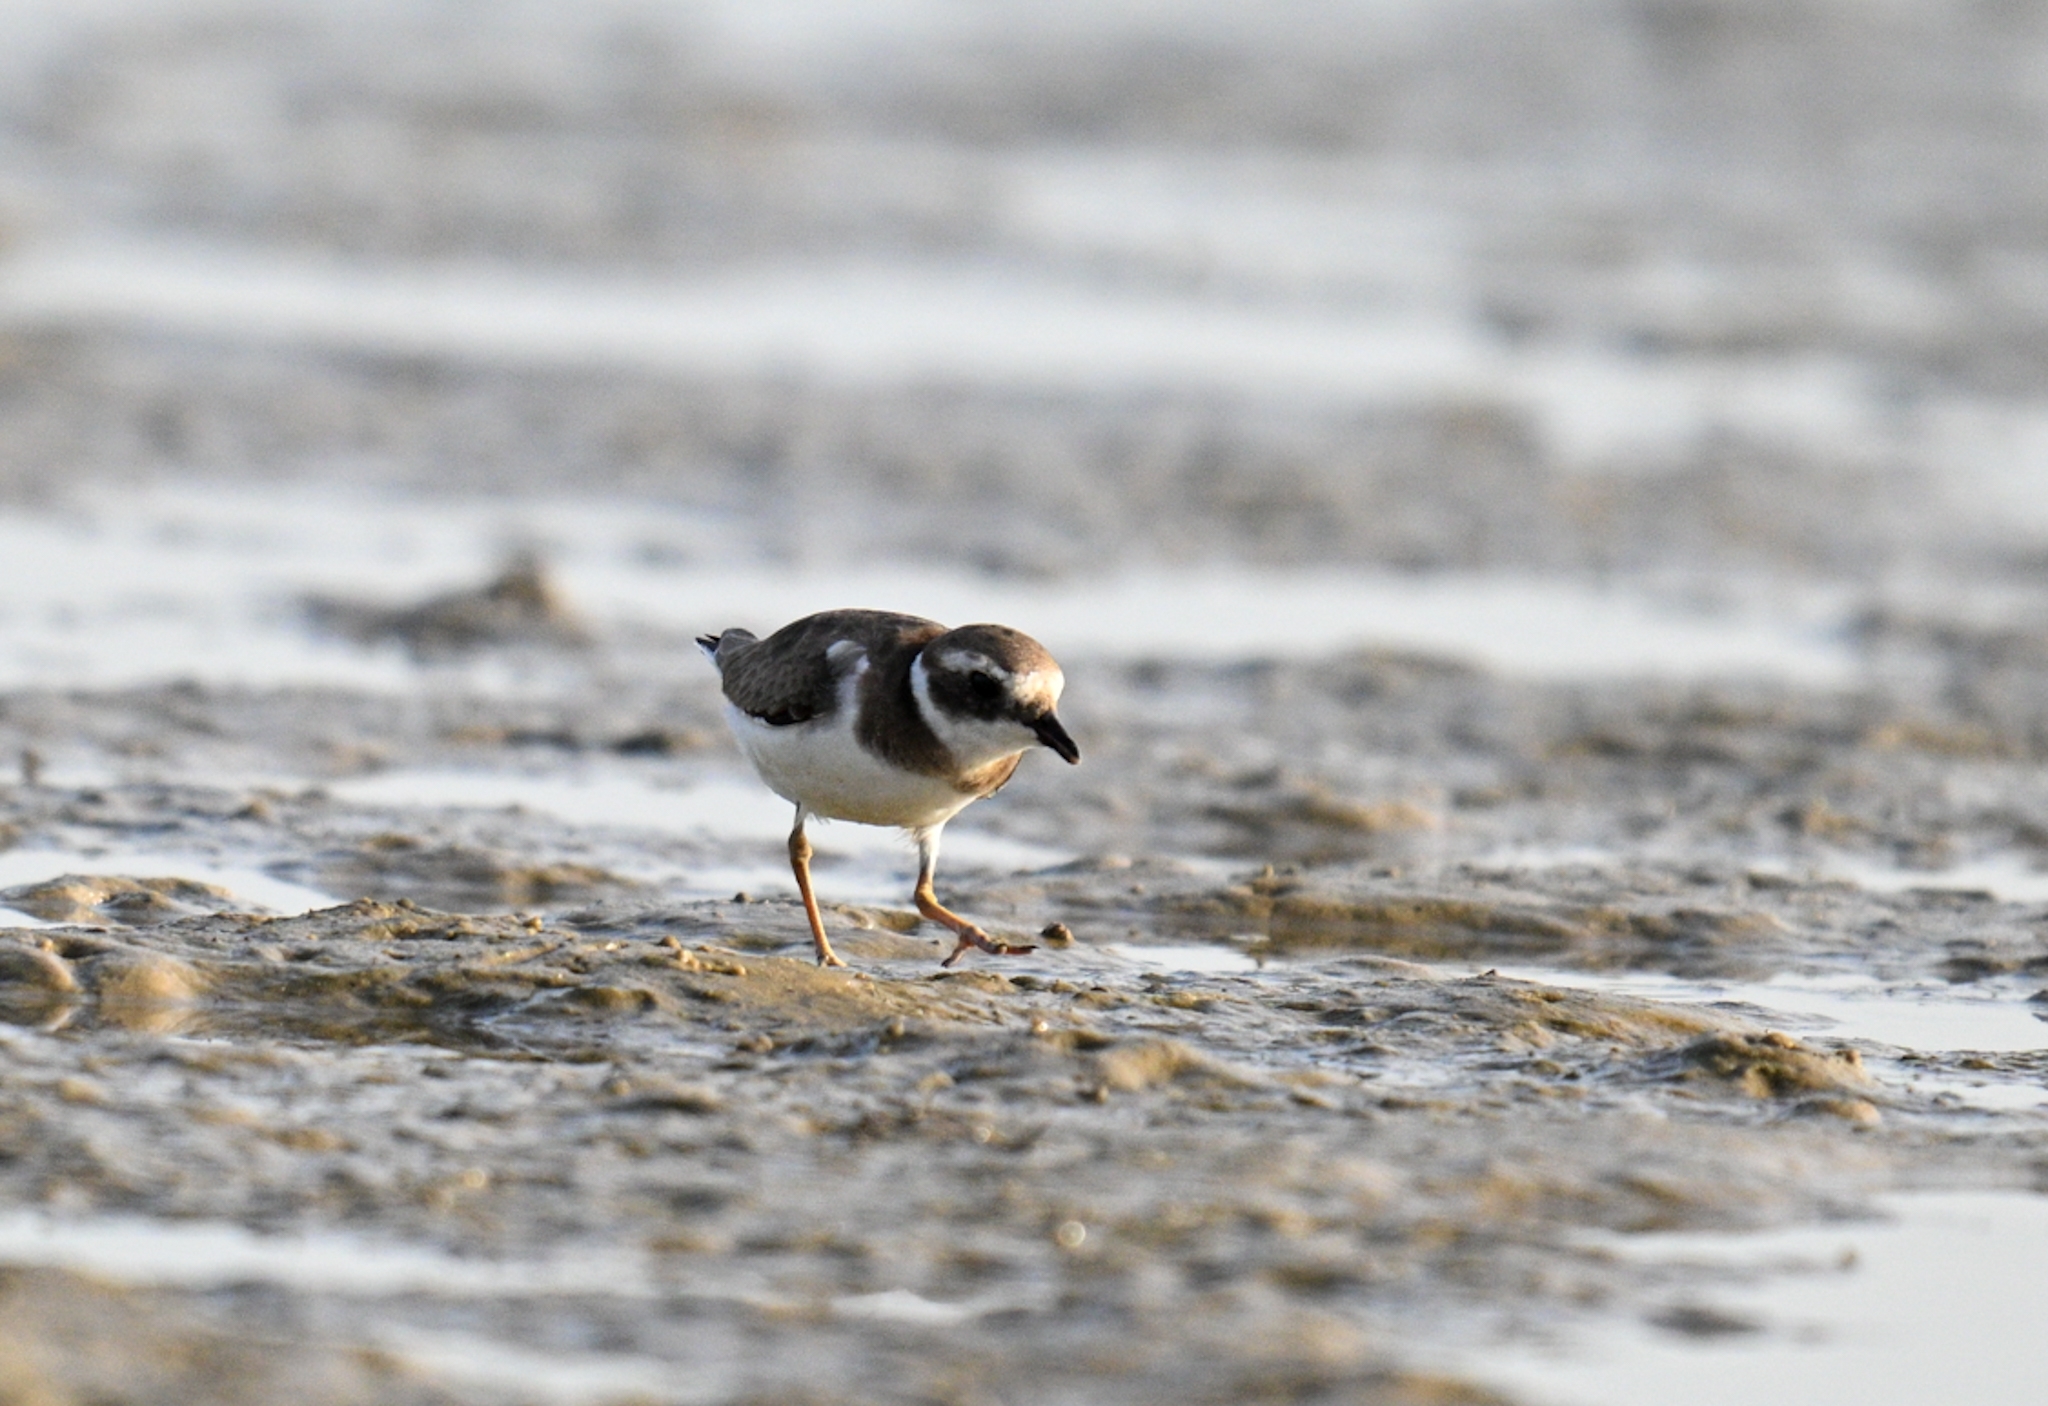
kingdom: Animalia
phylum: Chordata
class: Aves
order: Charadriiformes
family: Charadriidae
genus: Charadrius
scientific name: Charadrius hiaticula
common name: Common ringed plover
